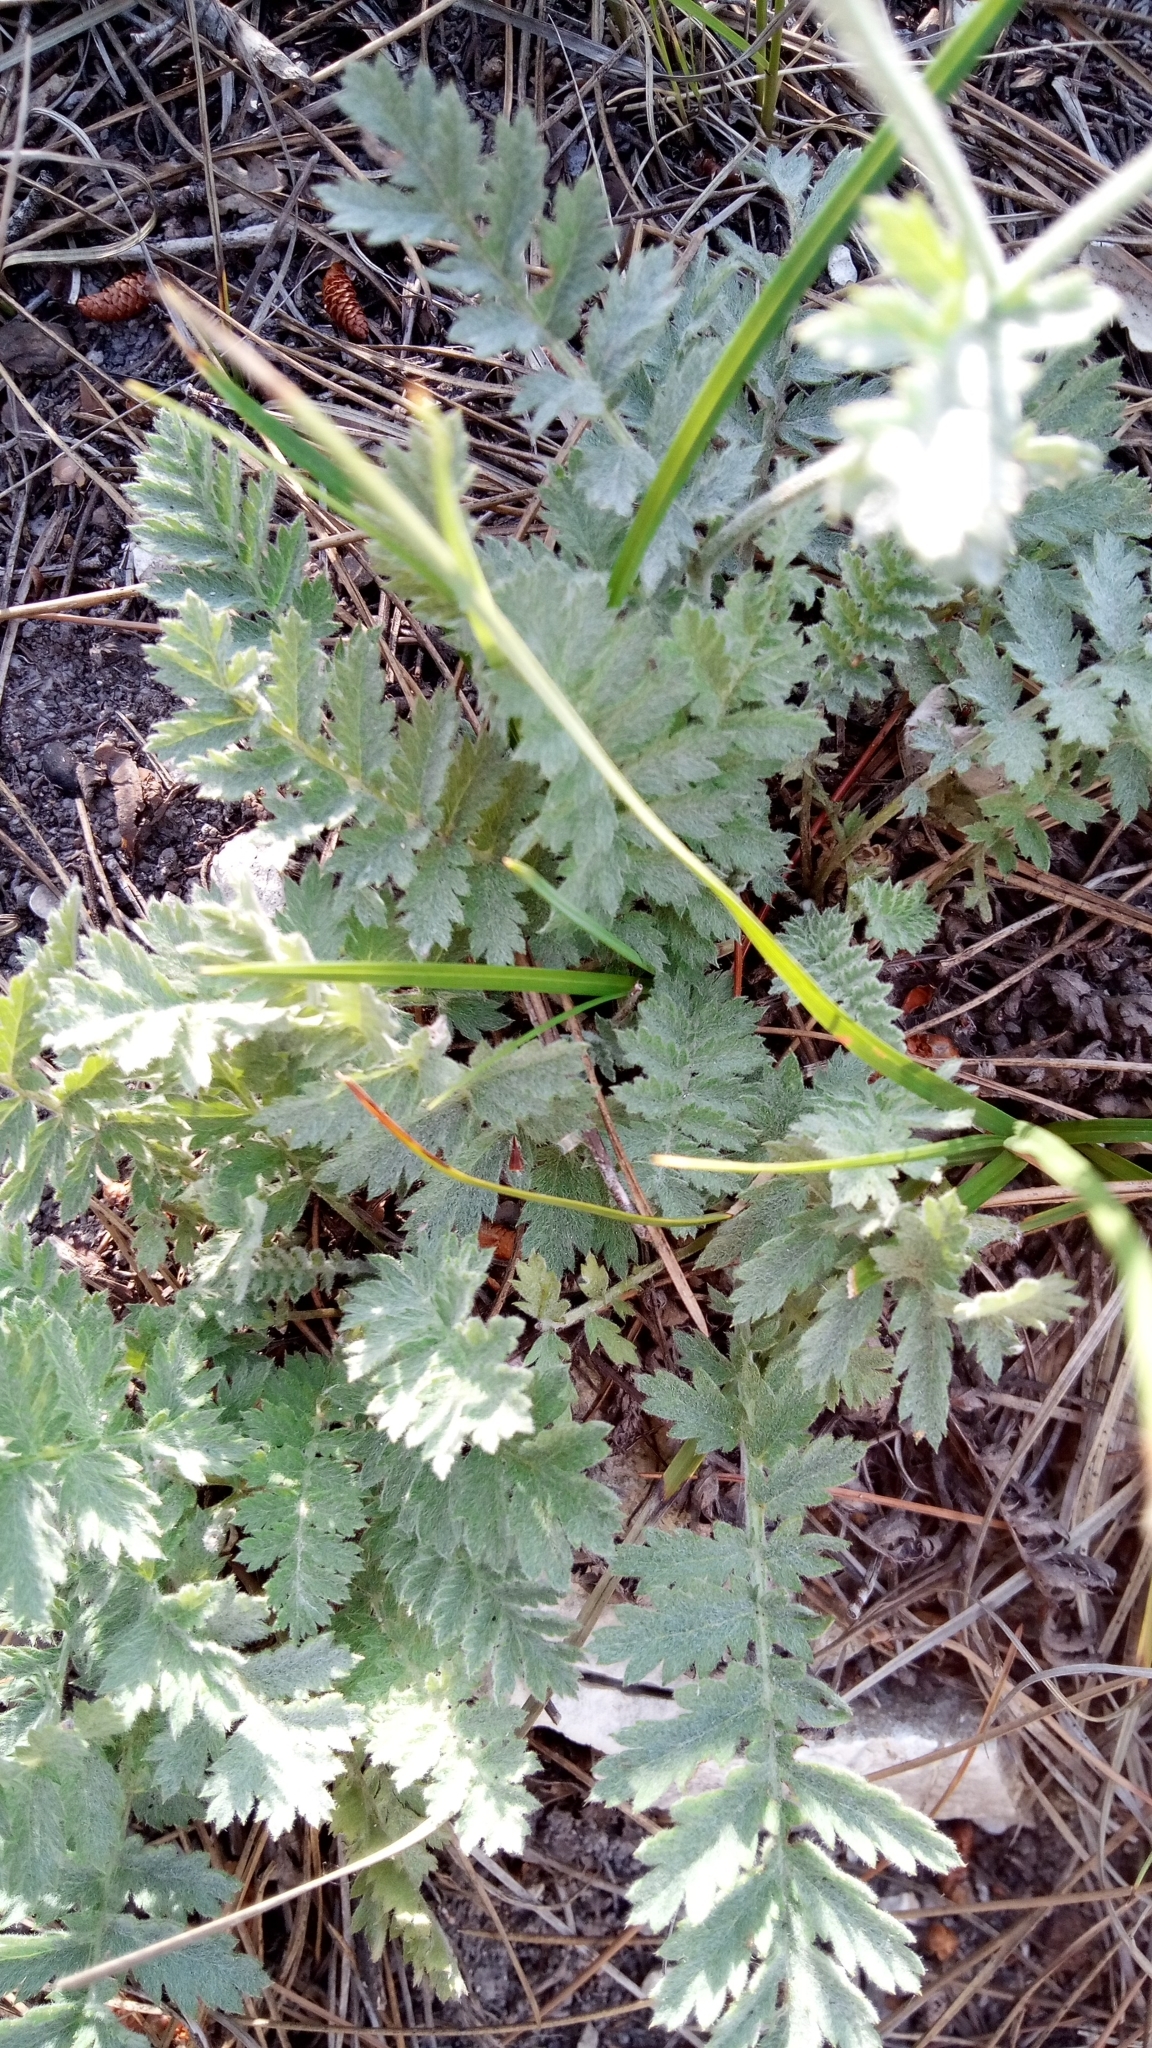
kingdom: Plantae
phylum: Tracheophyta
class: Magnoliopsida
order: Asterales
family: Asteraceae
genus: Tanacetum
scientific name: Tanacetum poteriifolium
